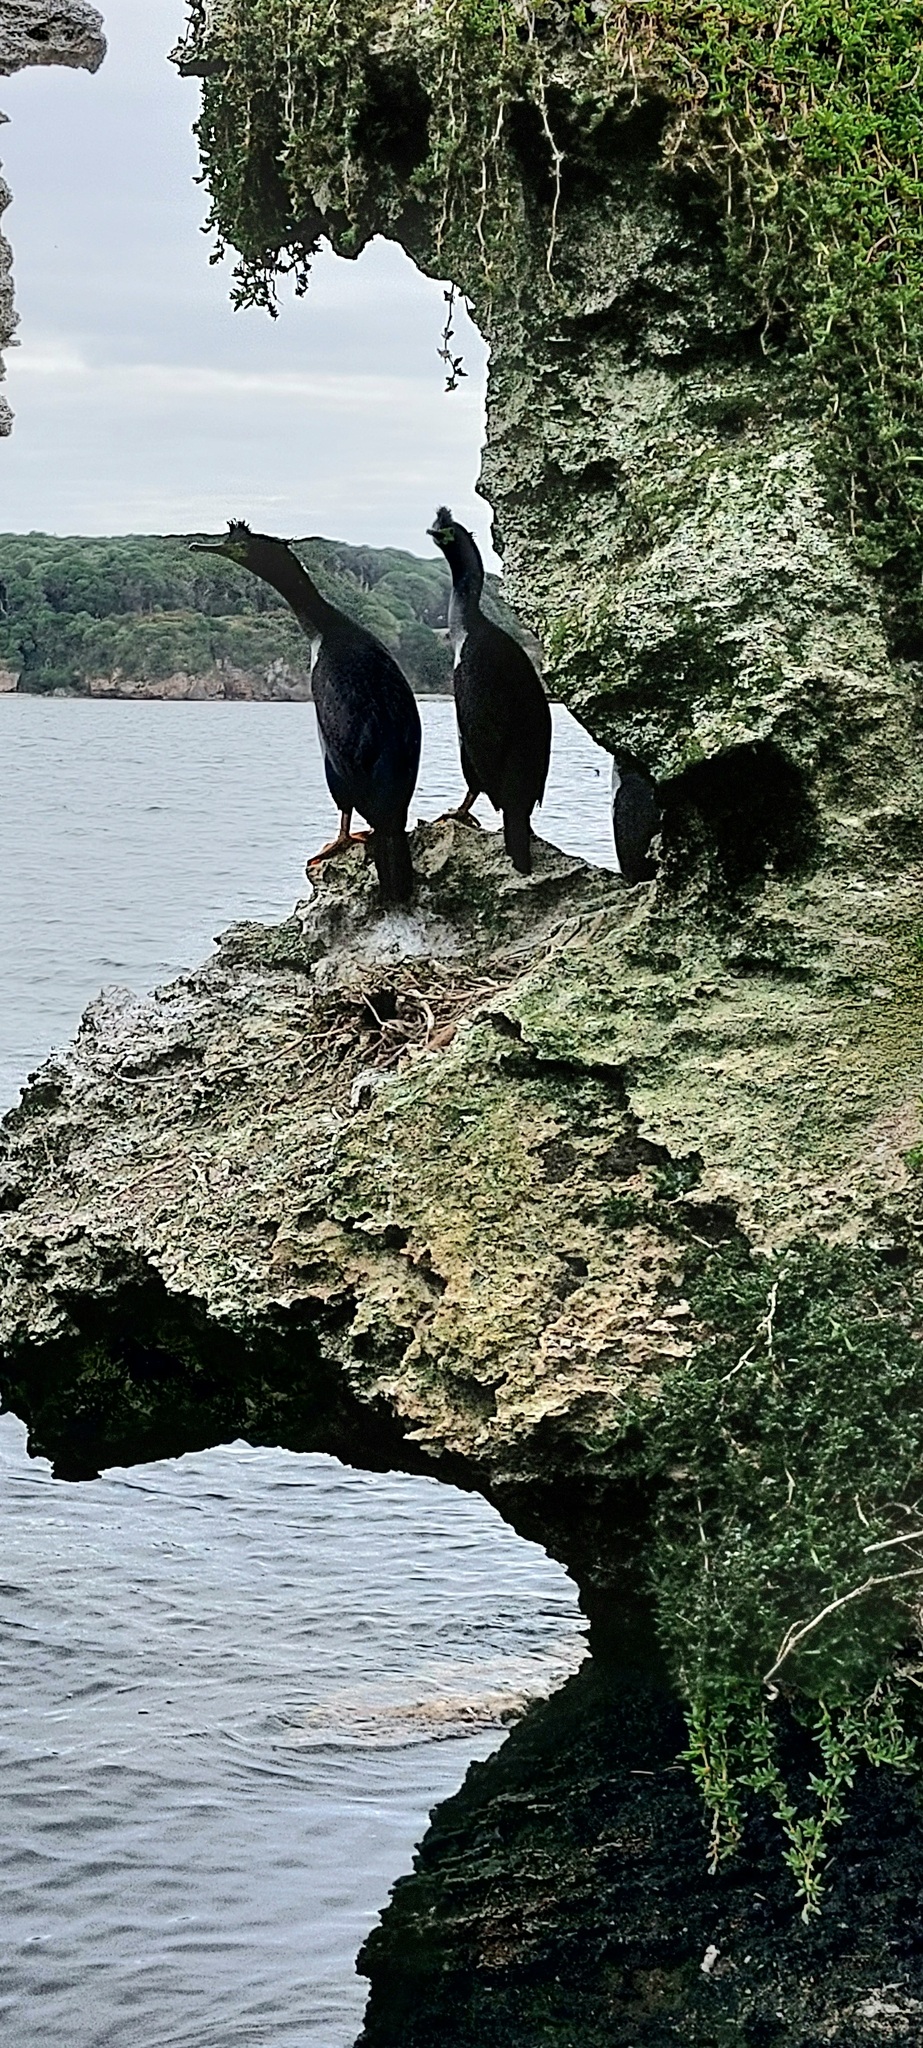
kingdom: Animalia
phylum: Chordata
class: Aves
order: Suliformes
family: Phalacrocoracidae
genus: Phalacrocorax
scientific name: Phalacrocorax featherstoni
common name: Pitt shag
